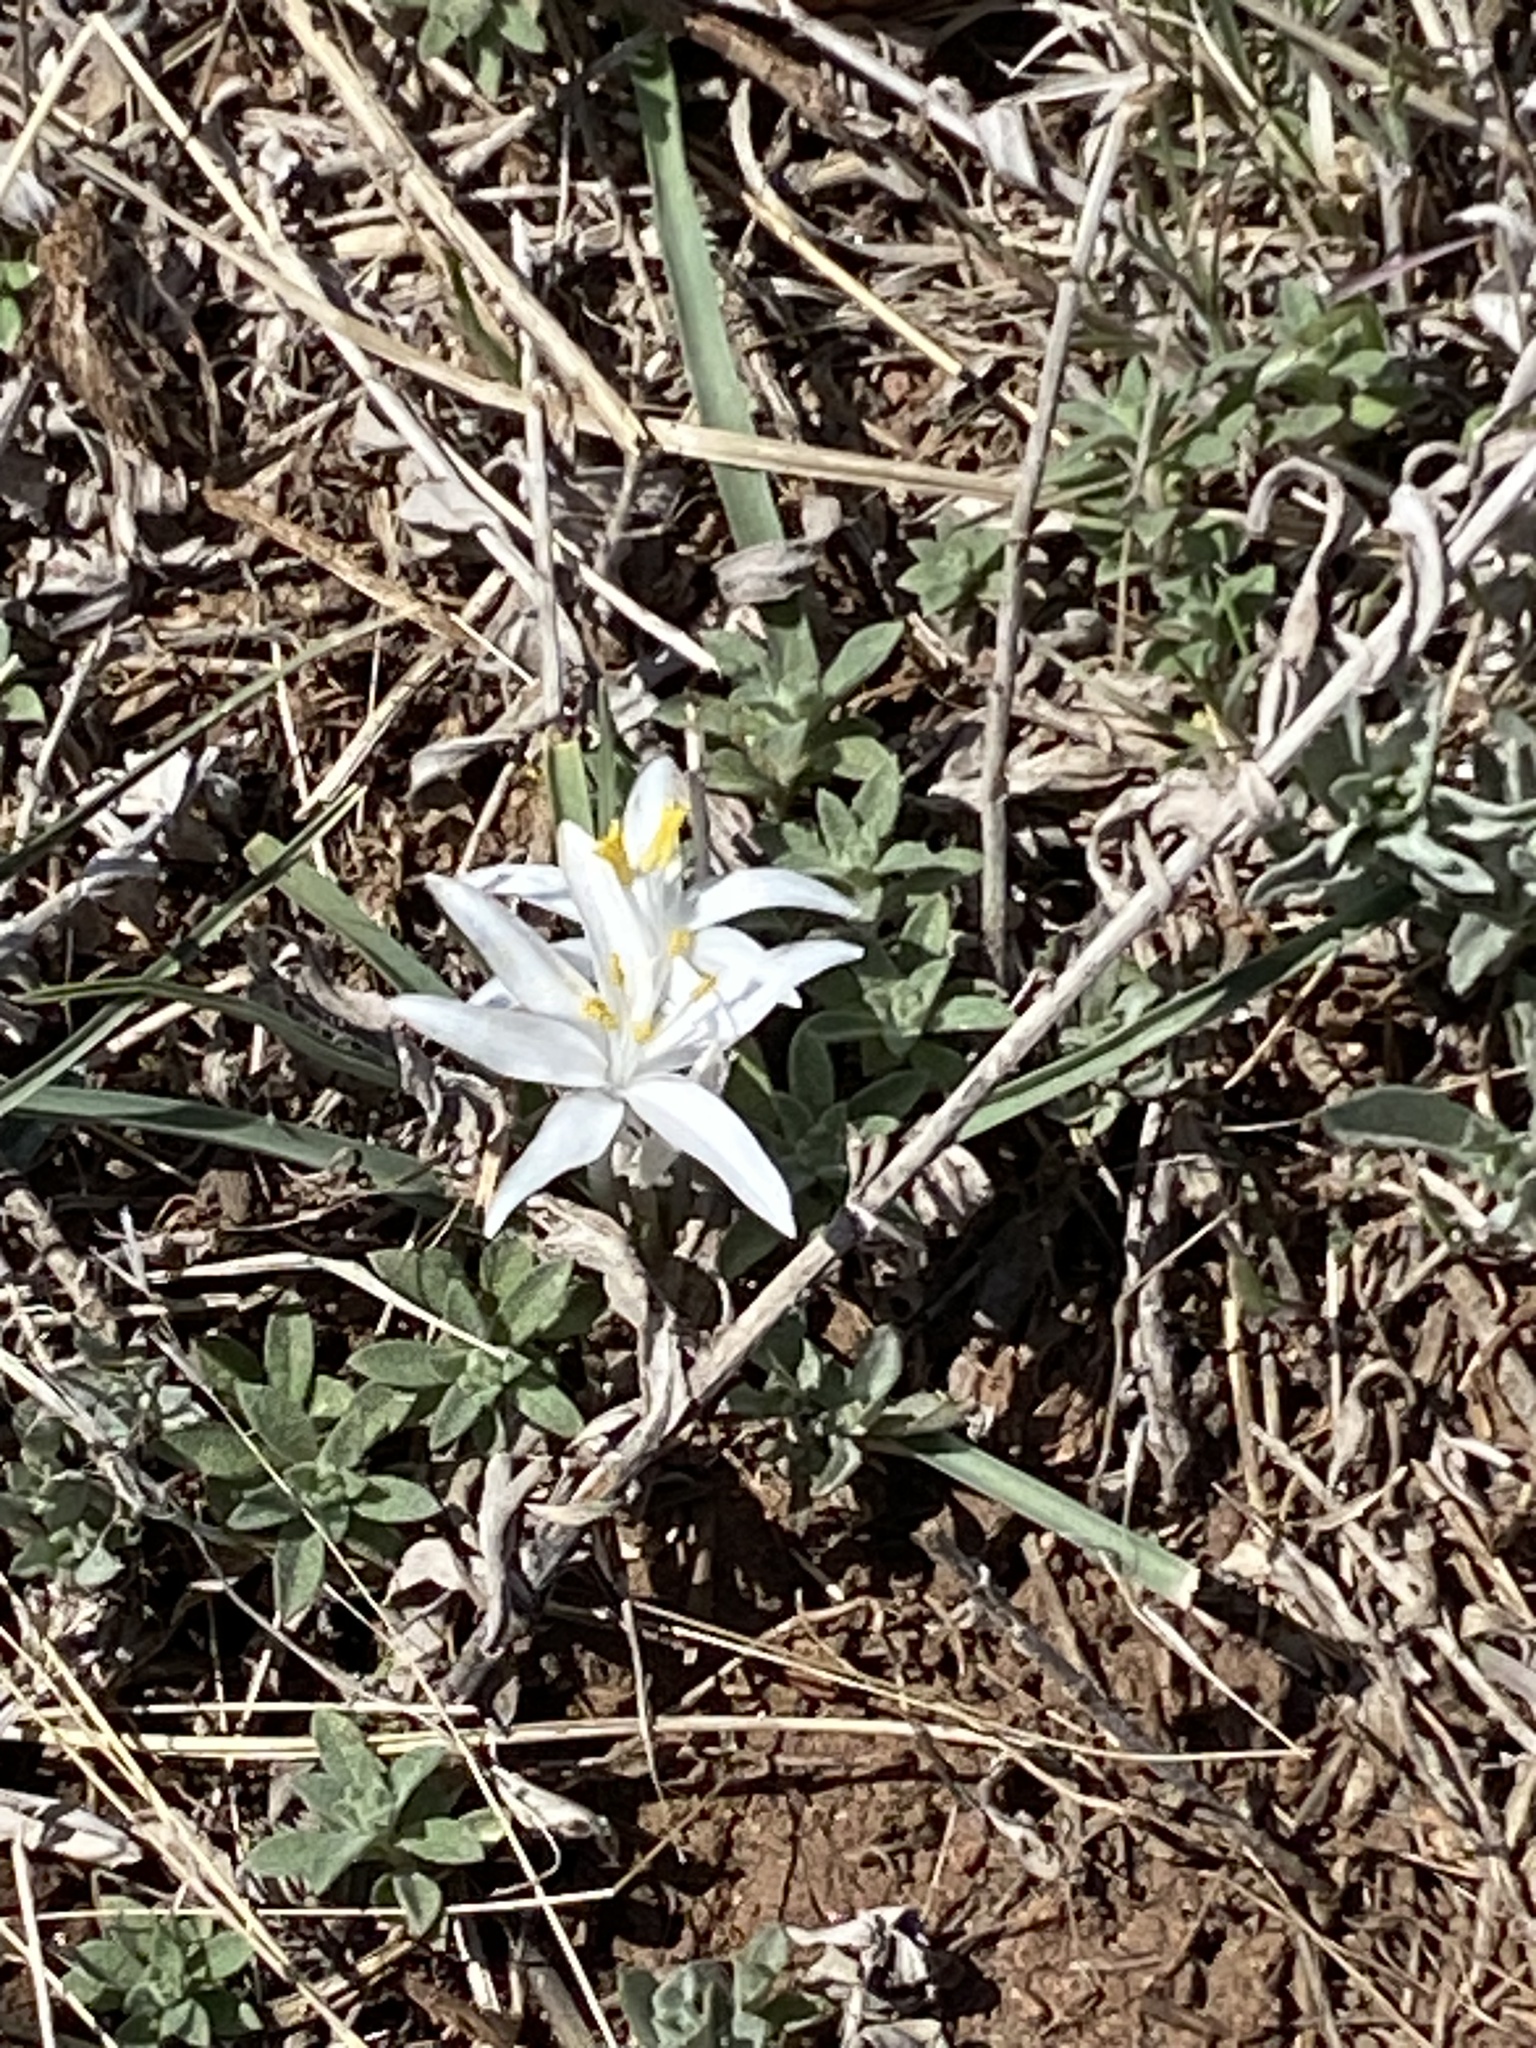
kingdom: Plantae
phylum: Tracheophyta
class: Liliopsida
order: Asparagales
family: Asparagaceae
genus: Leucocrinum
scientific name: Leucocrinum montanum
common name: Mountain-lily
